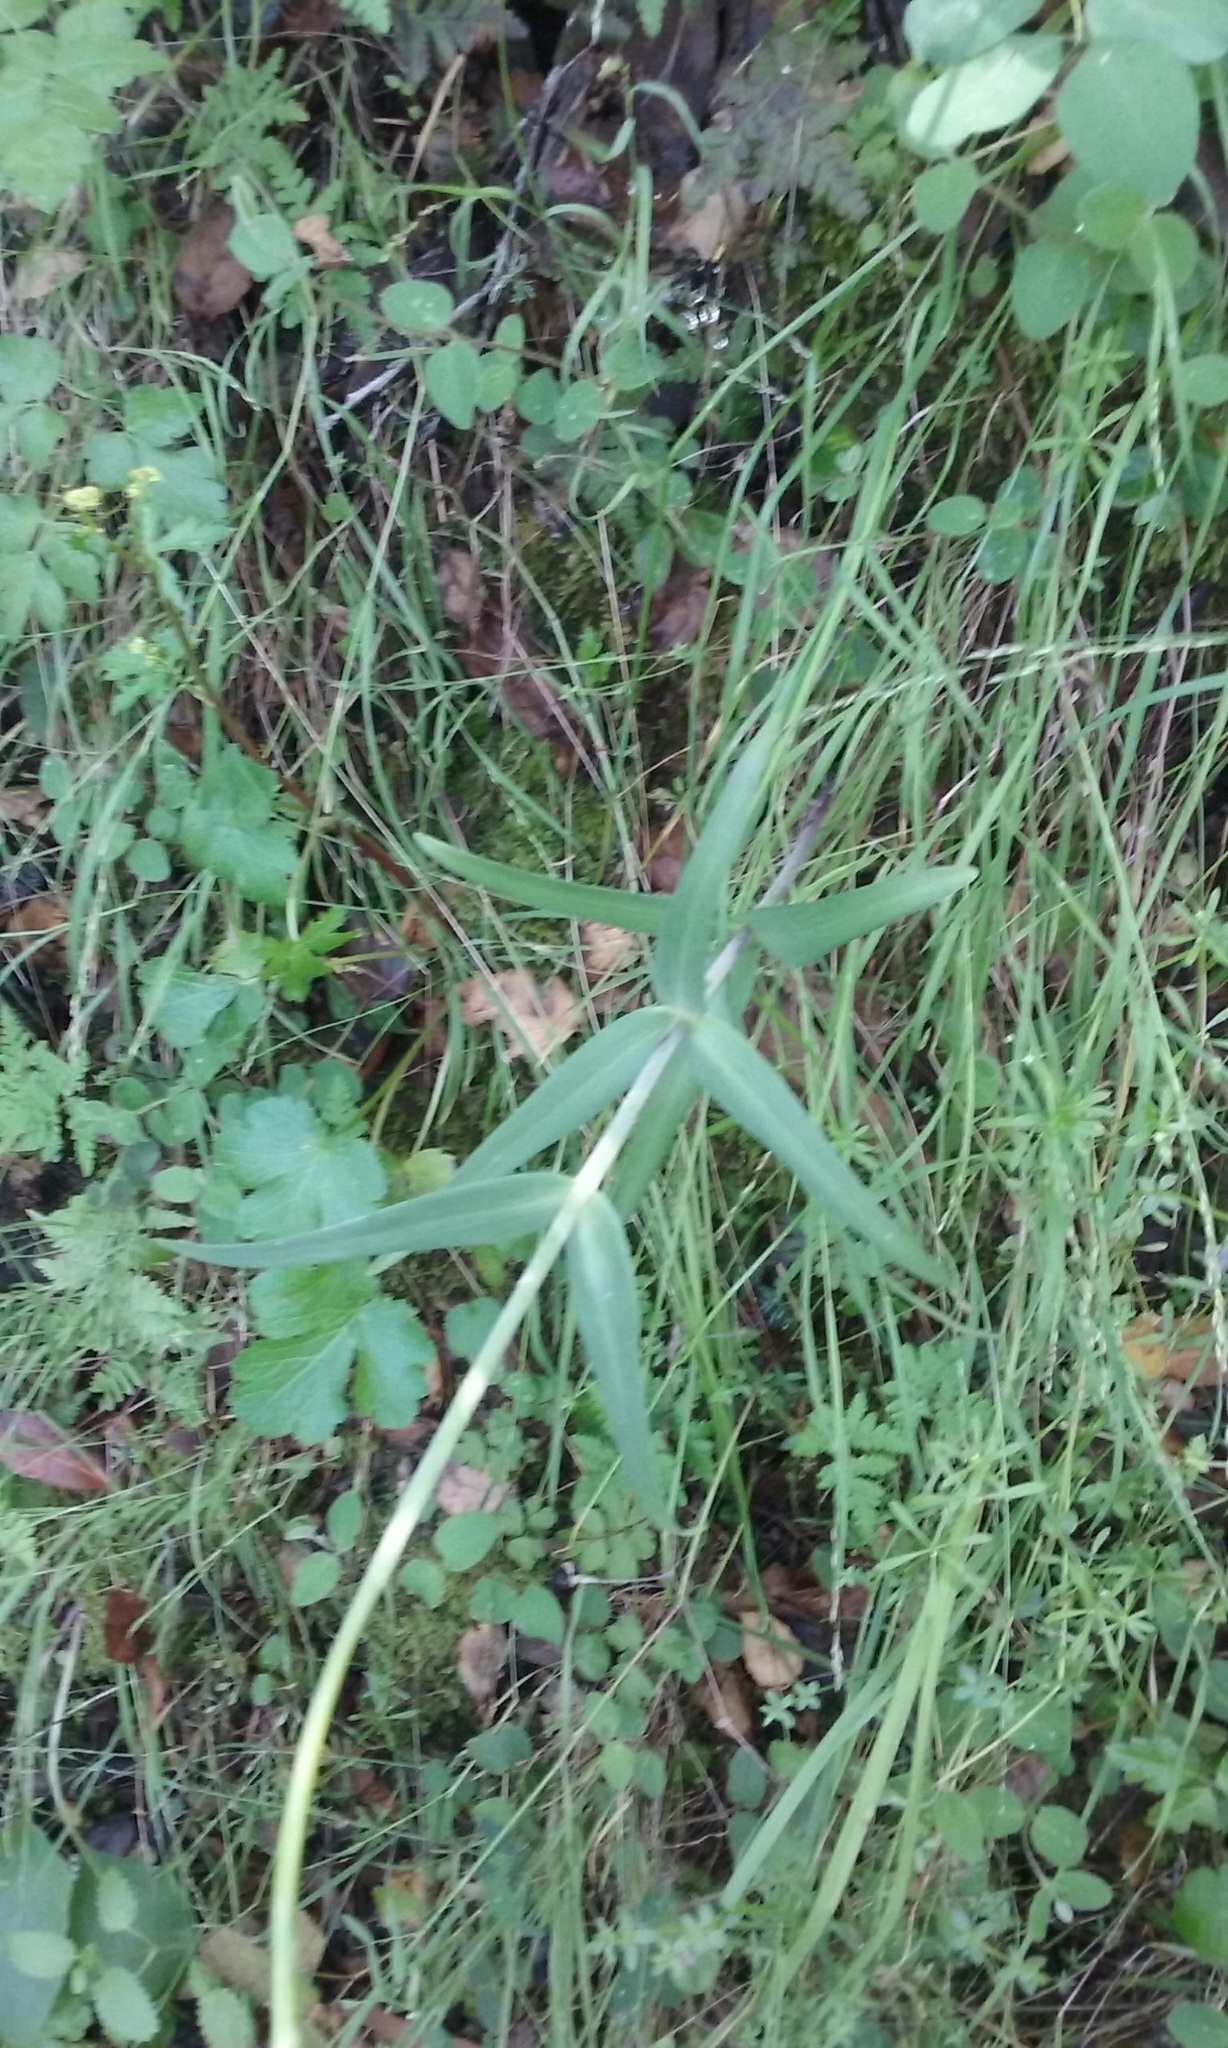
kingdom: Plantae
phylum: Tracheophyta
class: Liliopsida
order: Liliales
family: Liliaceae
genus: Fritillaria
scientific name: Fritillaria affinis
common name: Ojai fritillary
